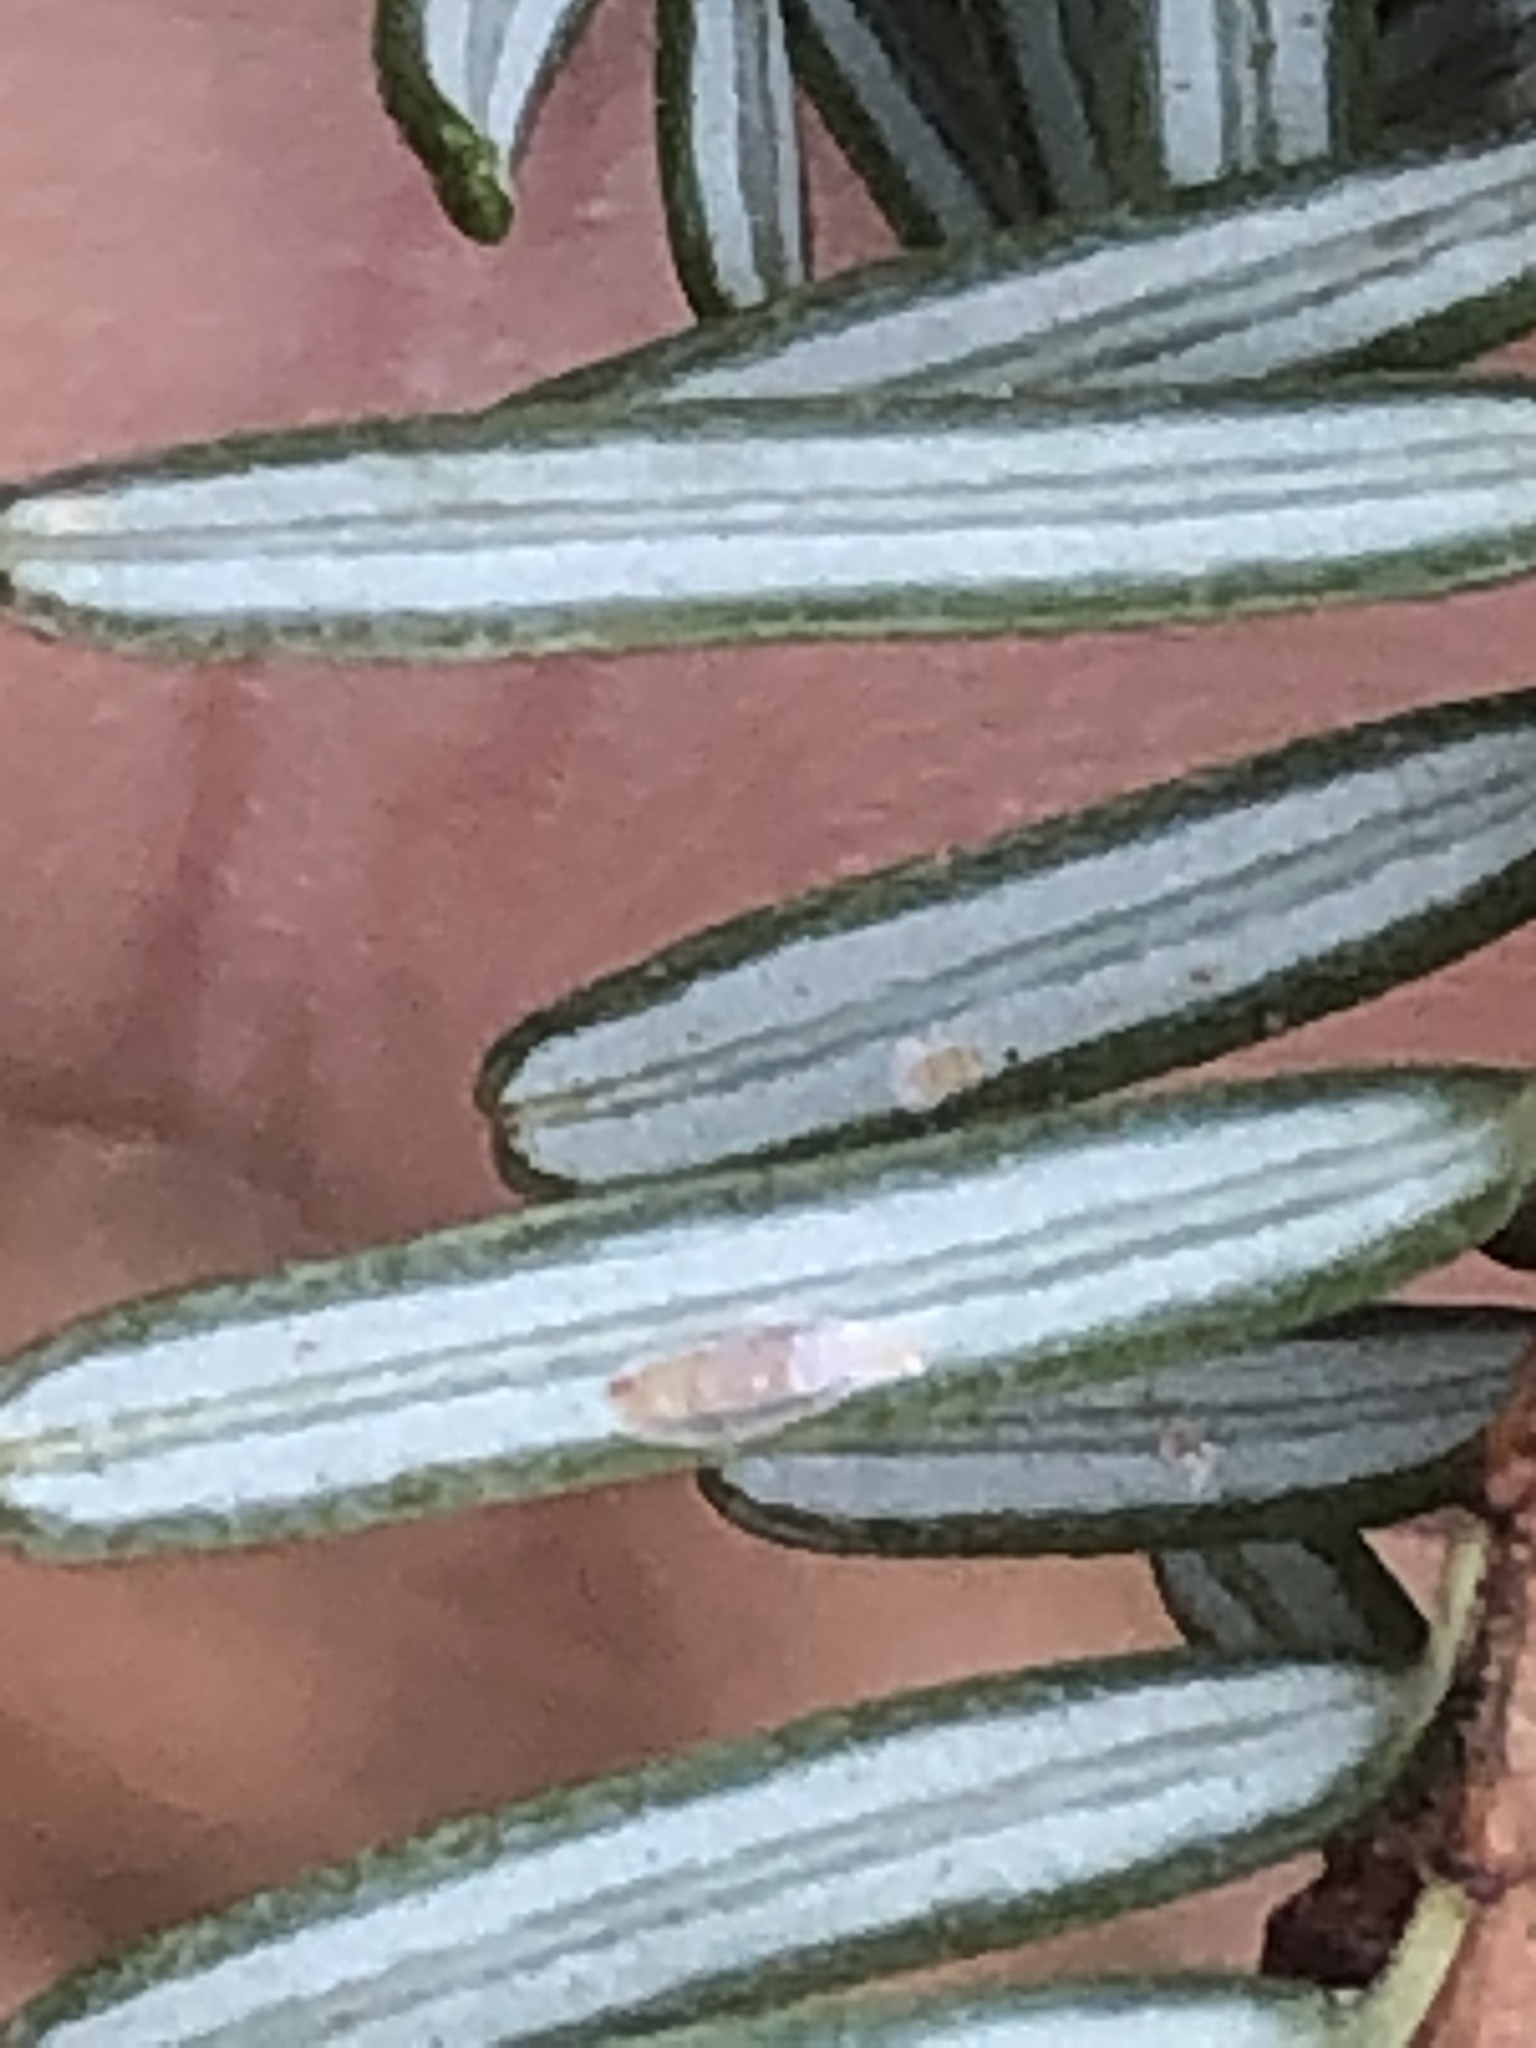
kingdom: Animalia
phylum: Arthropoda
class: Insecta
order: Hemiptera
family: Diaspididae
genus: Fiorinia
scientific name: Fiorinia externa
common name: Elongate hemlock scale
